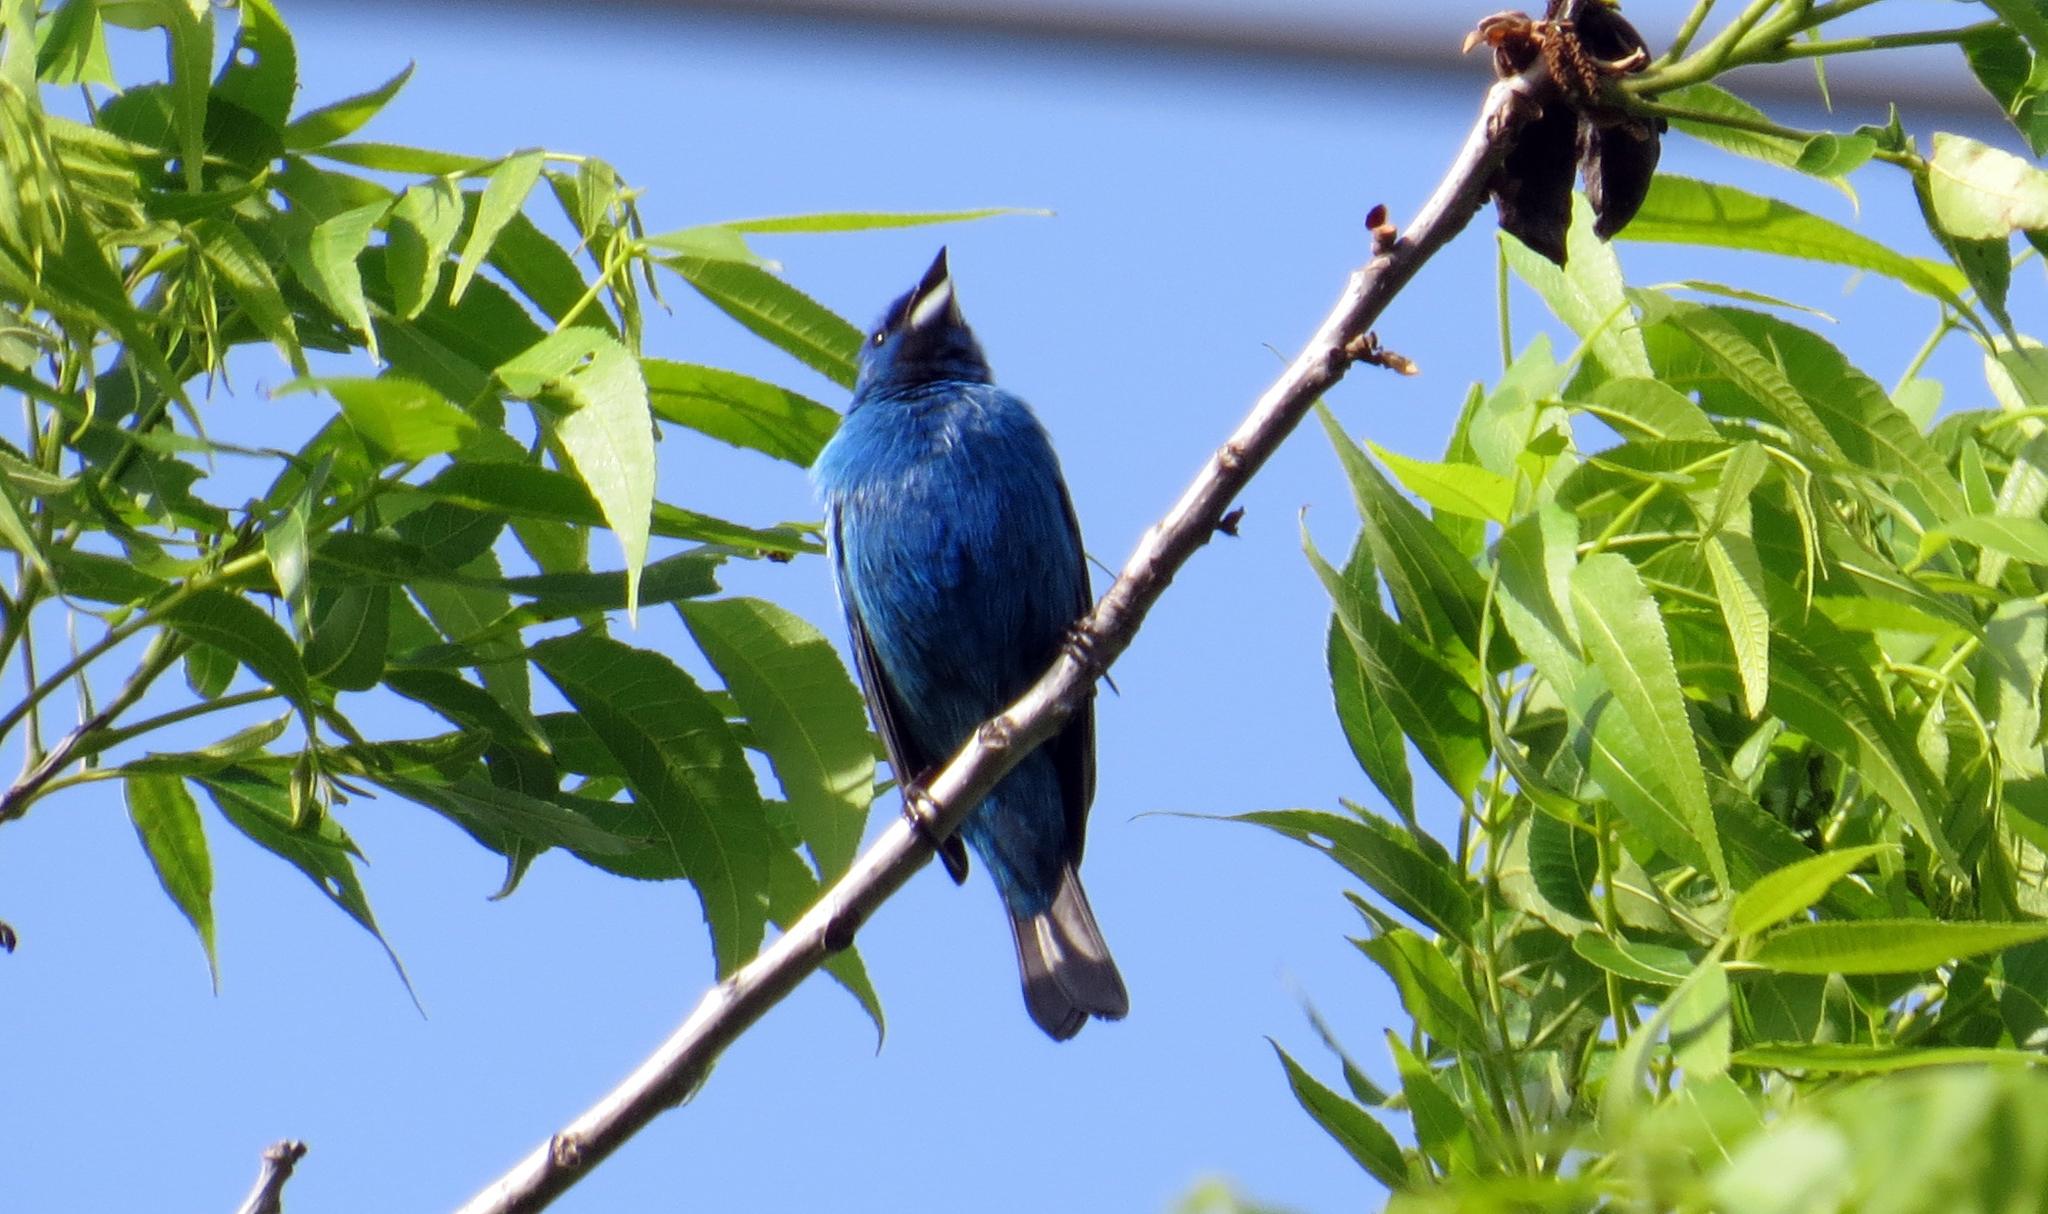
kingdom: Animalia
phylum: Chordata
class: Aves
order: Passeriformes
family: Cardinalidae
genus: Passerina
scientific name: Passerina cyanea
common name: Indigo bunting
